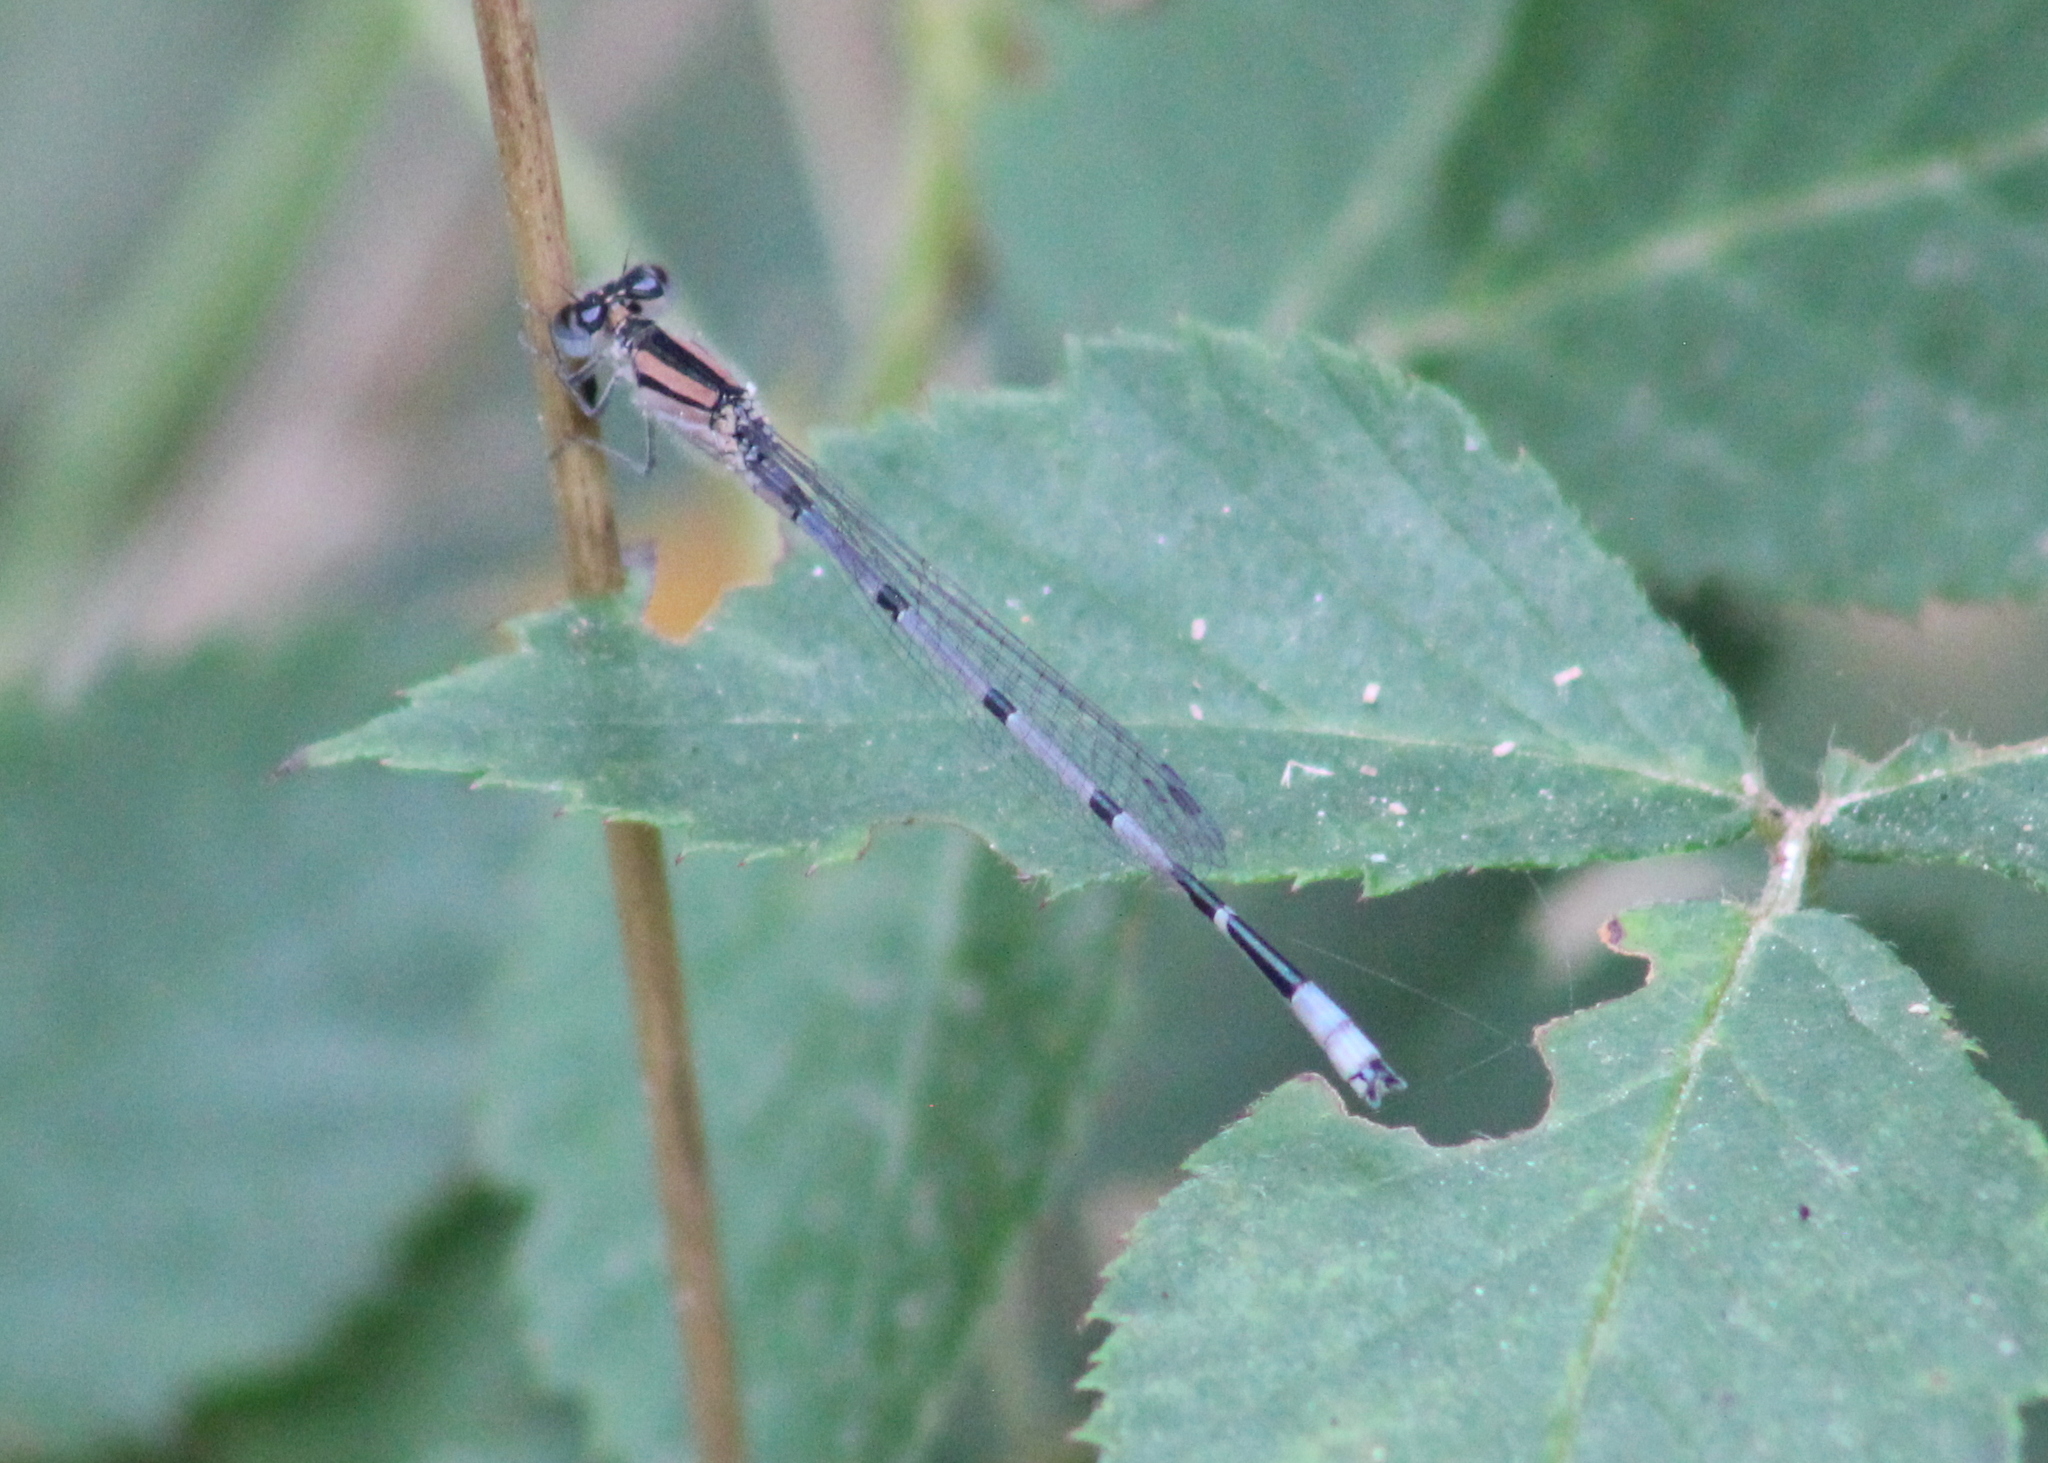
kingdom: Animalia
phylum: Arthropoda
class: Insecta
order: Odonata
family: Coenagrionidae
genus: Enallagma
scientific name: Enallagma civile
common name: Damselfly
